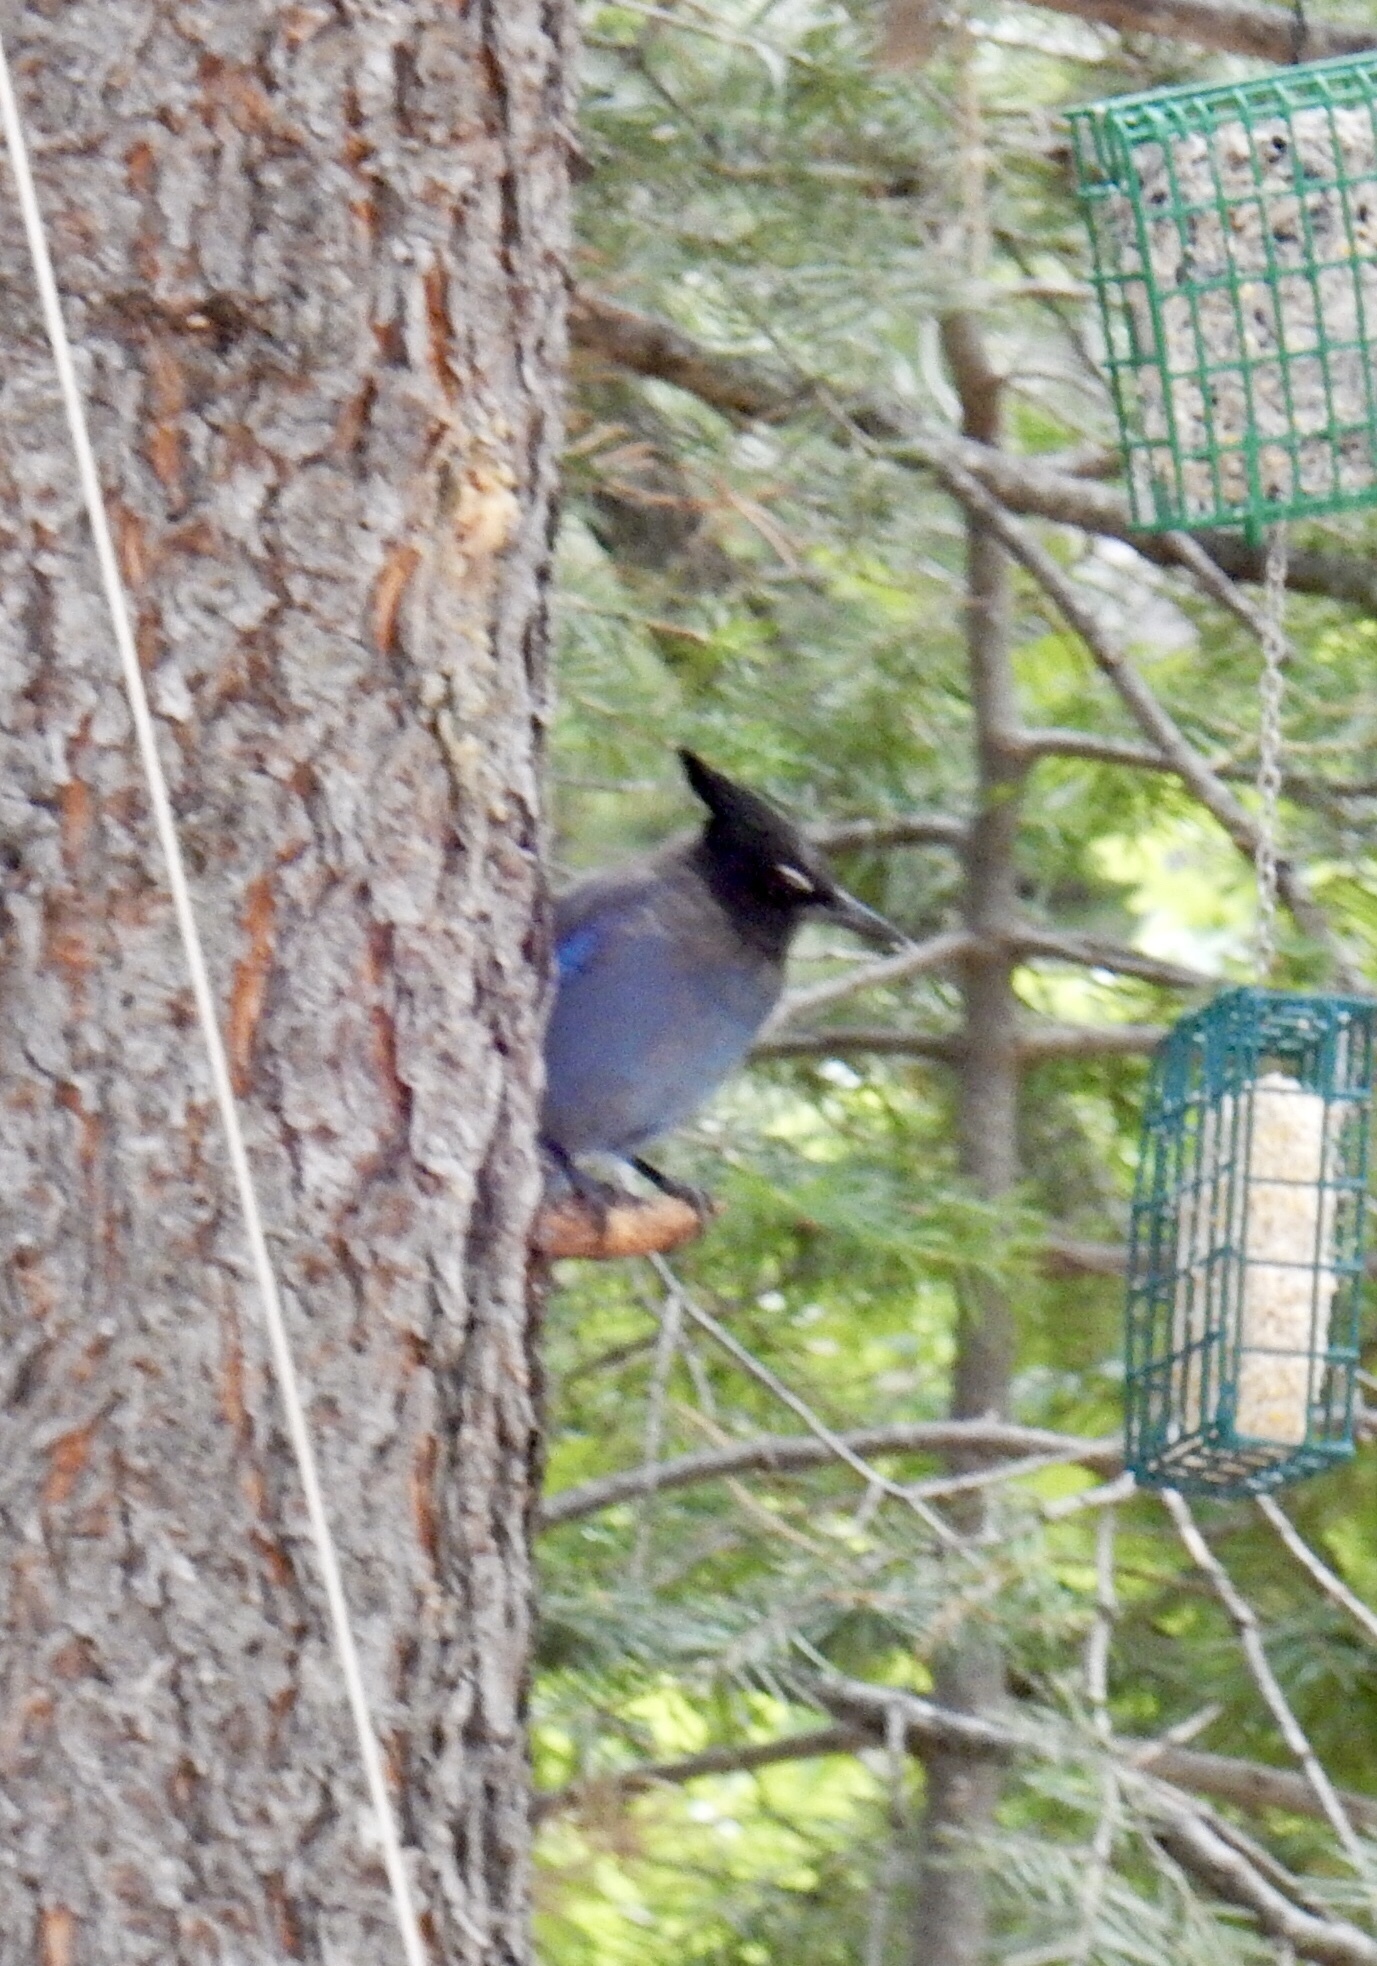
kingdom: Animalia
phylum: Chordata
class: Aves
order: Passeriformes
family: Corvidae
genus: Cyanocitta
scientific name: Cyanocitta stelleri
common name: Steller's jay
